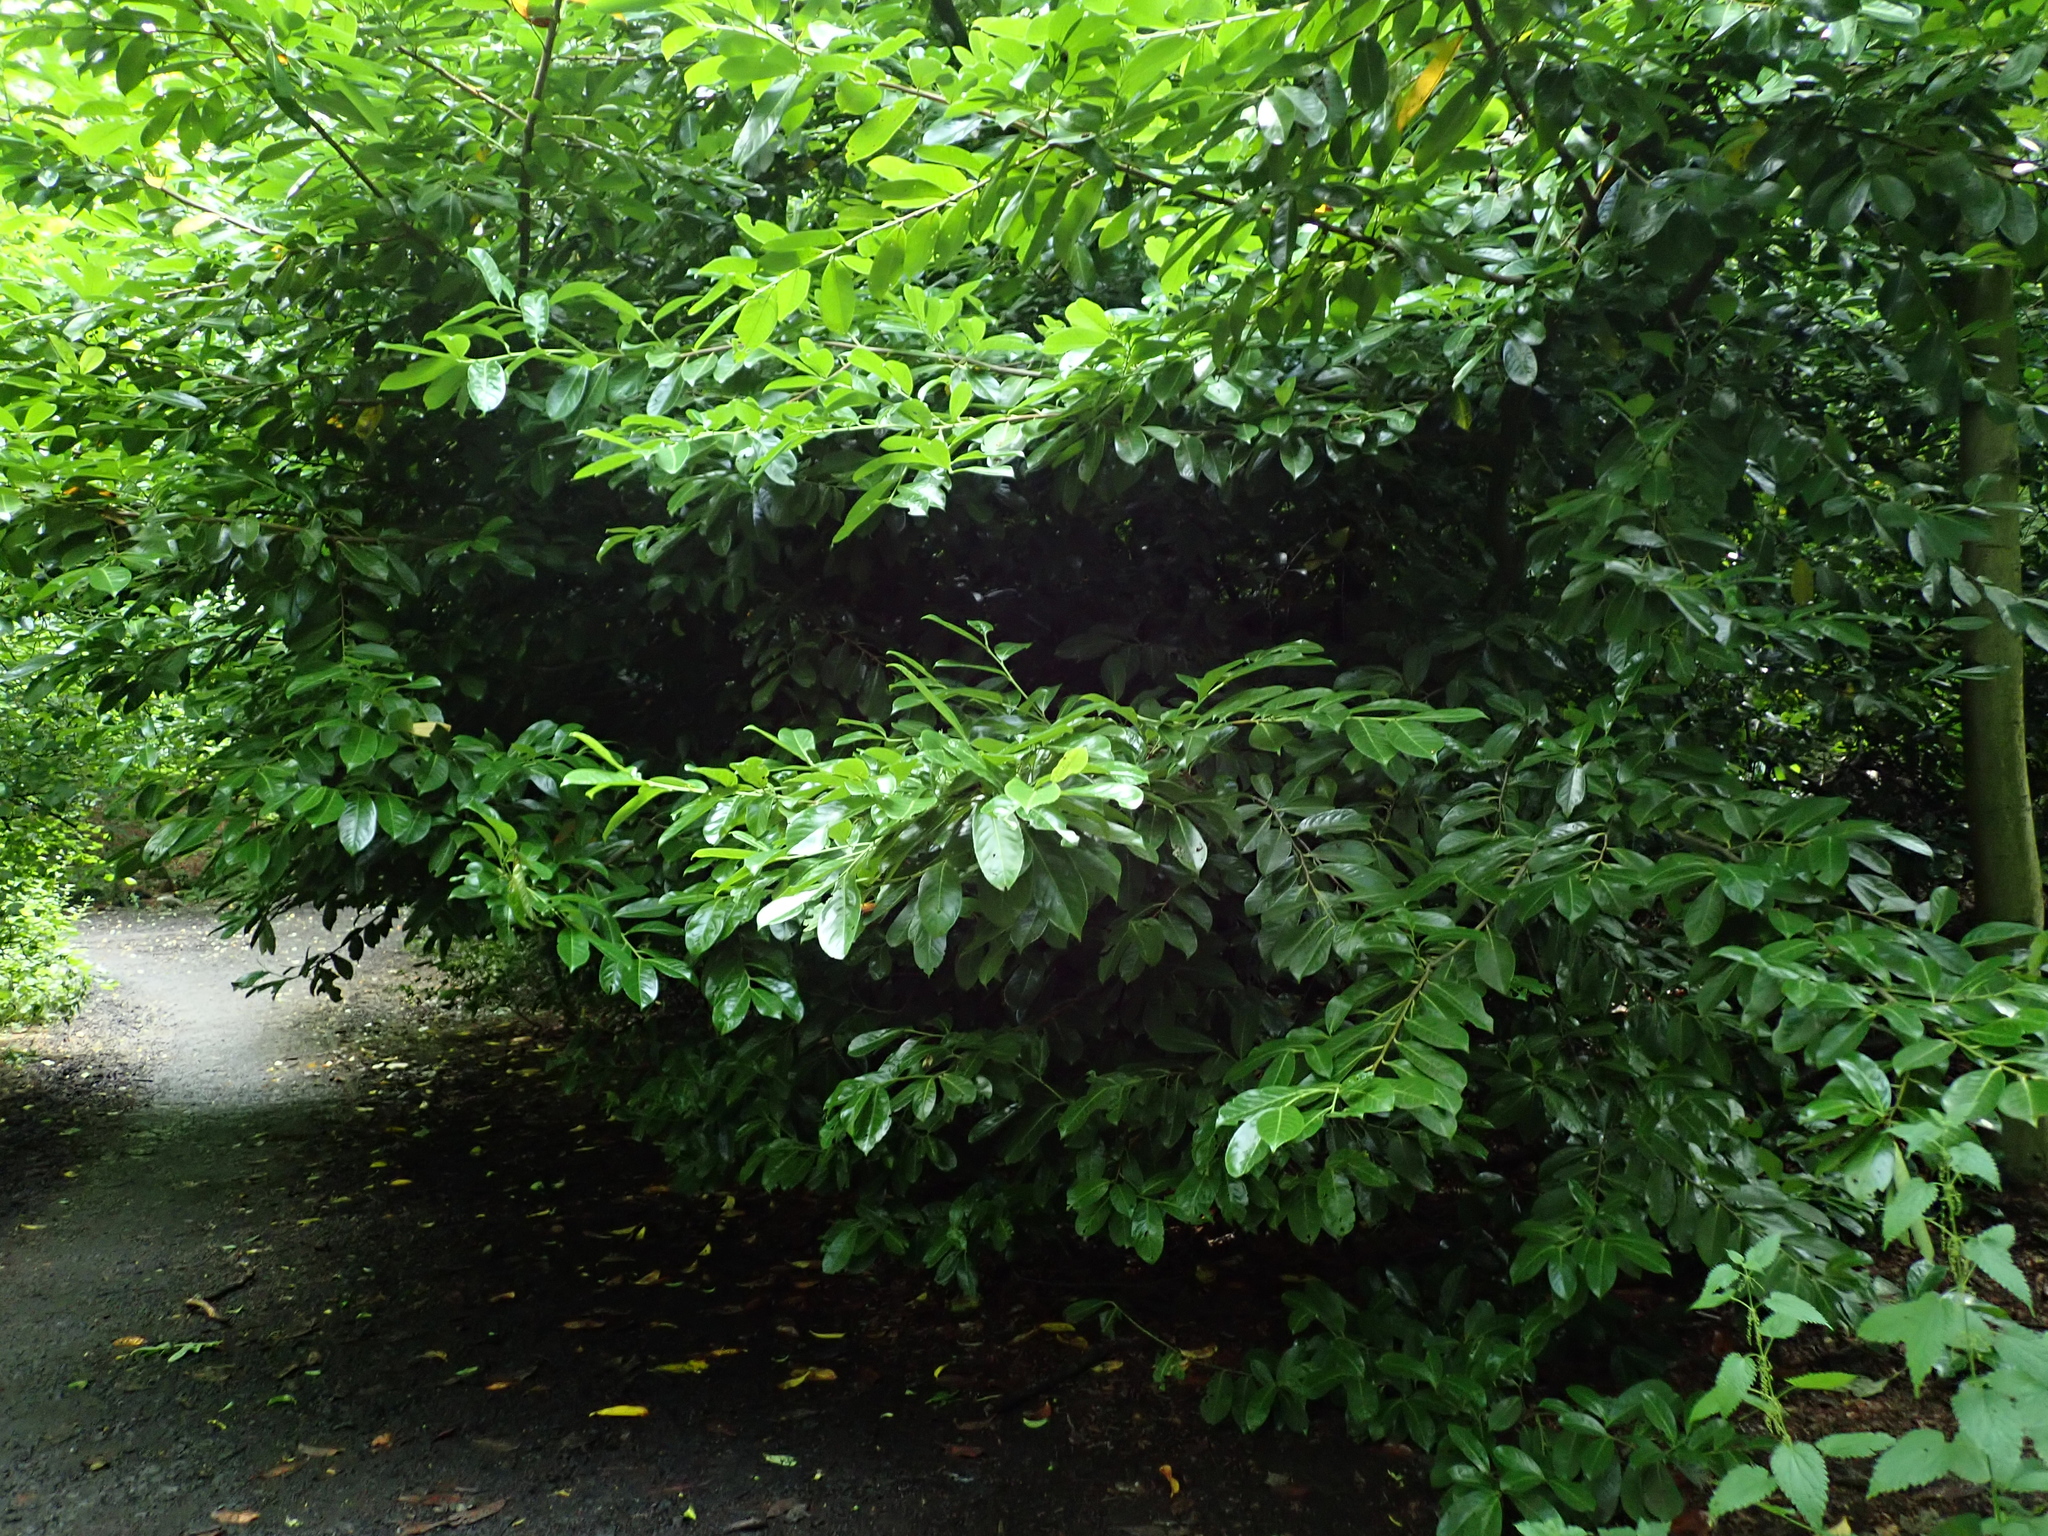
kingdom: Plantae
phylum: Tracheophyta
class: Magnoliopsida
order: Rosales
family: Rosaceae
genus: Prunus
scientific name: Prunus laurocerasus
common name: Cherry laurel
